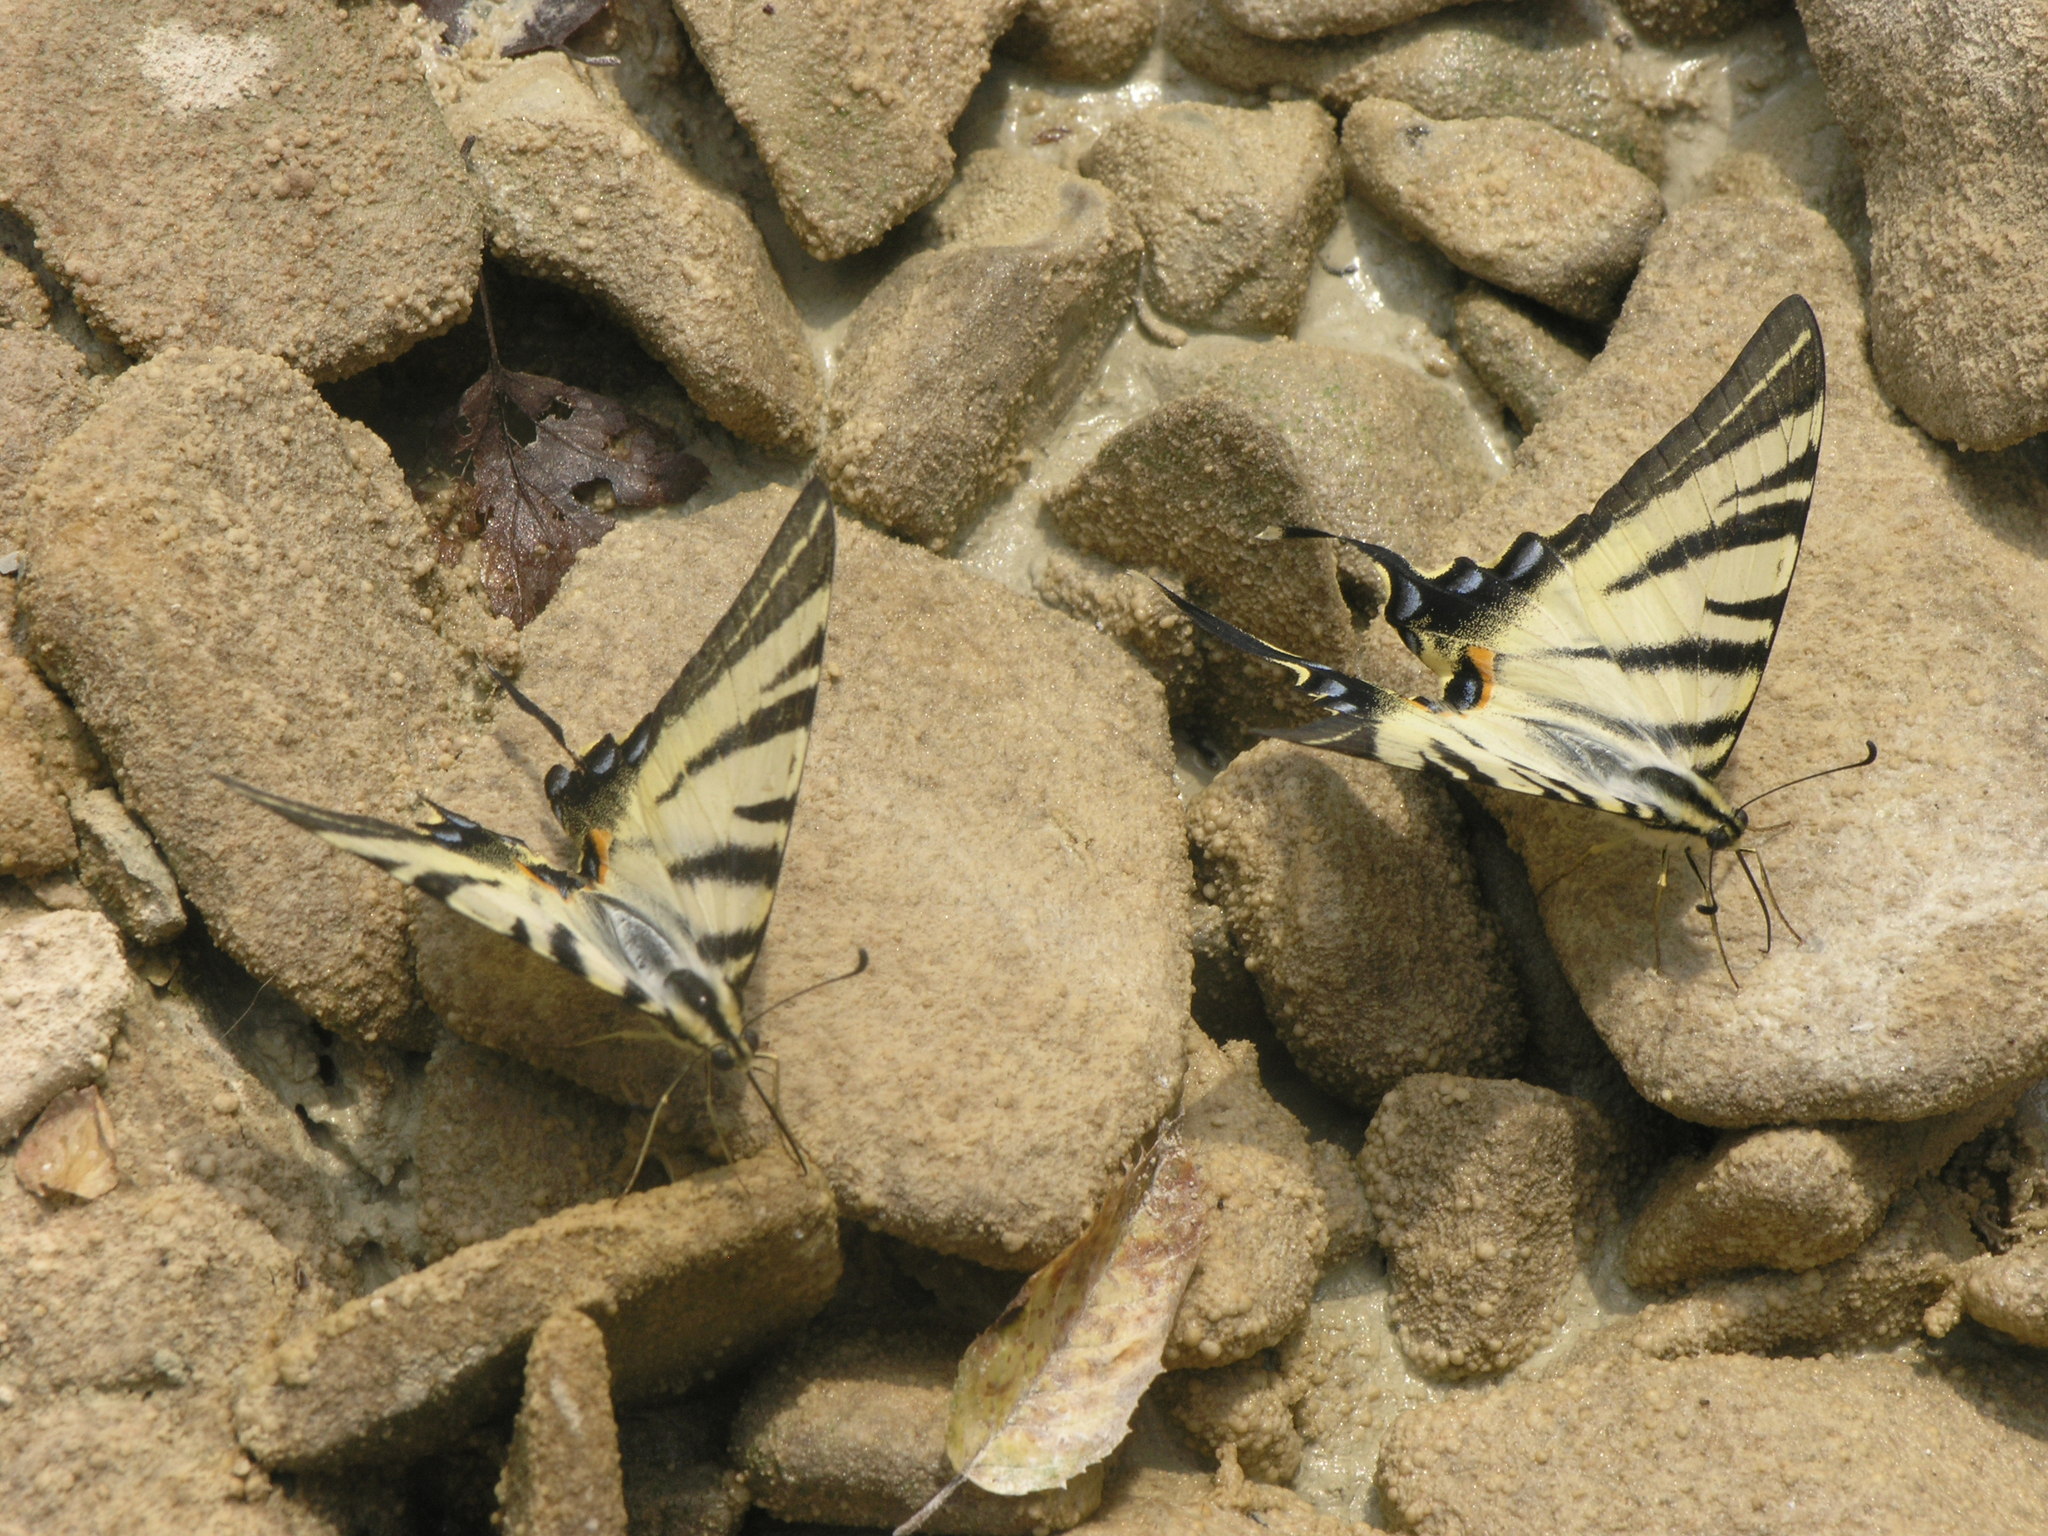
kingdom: Animalia
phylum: Arthropoda
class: Insecta
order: Lepidoptera
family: Papilionidae
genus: Iphiclides
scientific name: Iphiclides podalirius
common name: Scarce swallowtail
